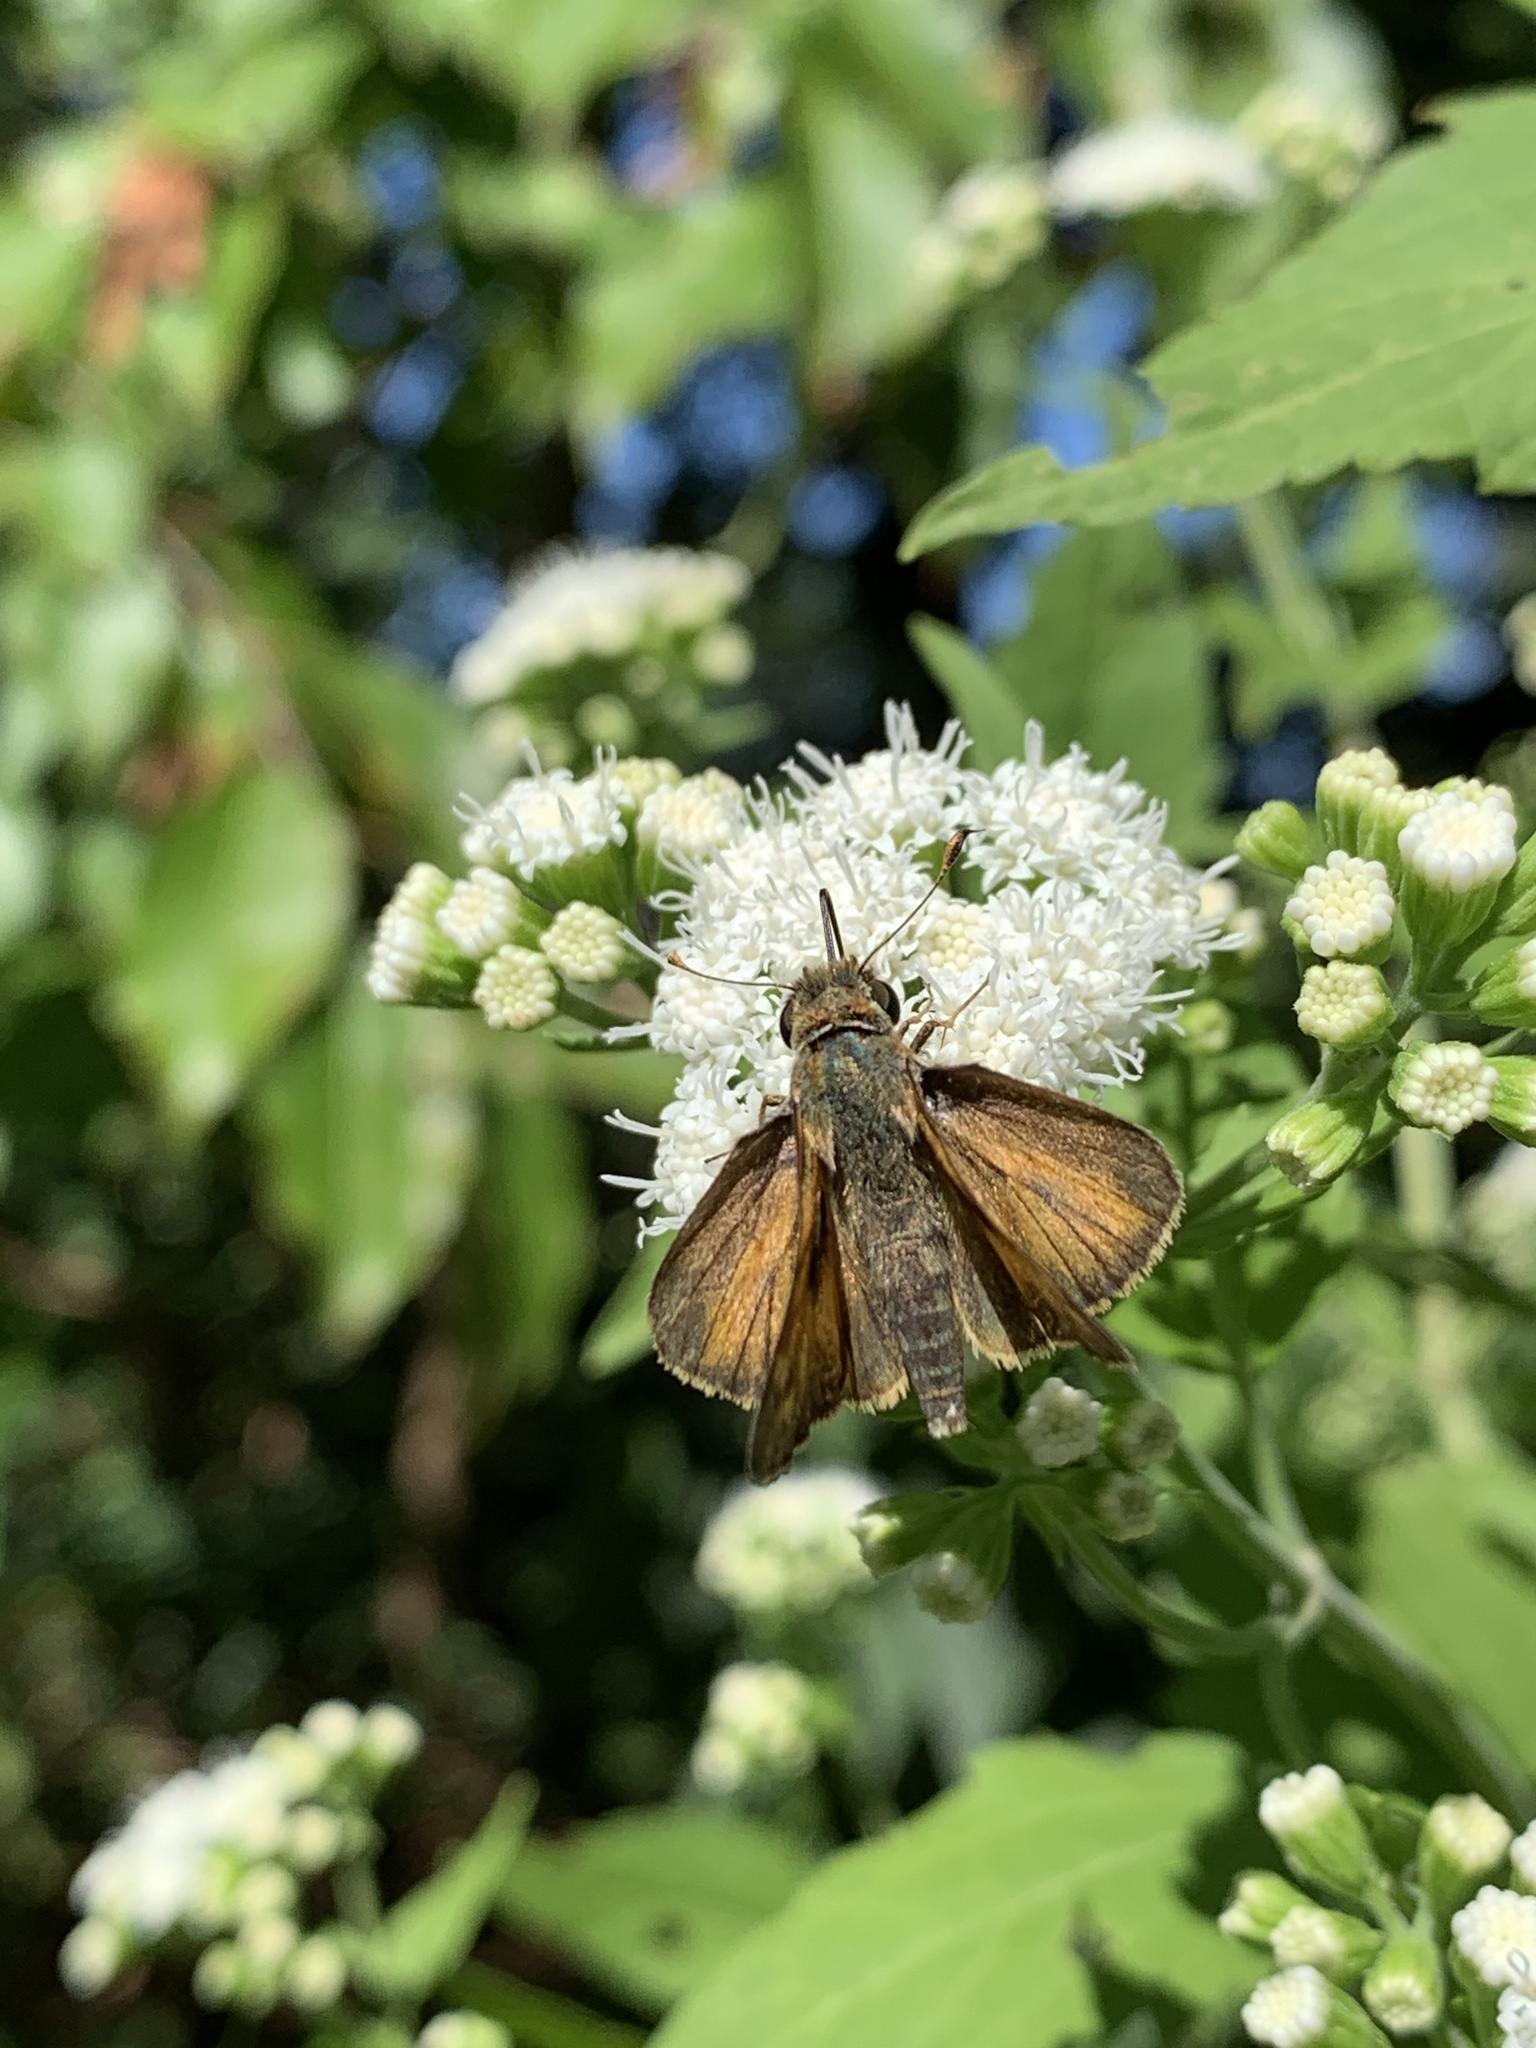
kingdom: Animalia
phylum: Arthropoda
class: Insecta
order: Lepidoptera
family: Hesperiidae
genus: Atalopedes
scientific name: Atalopedes
